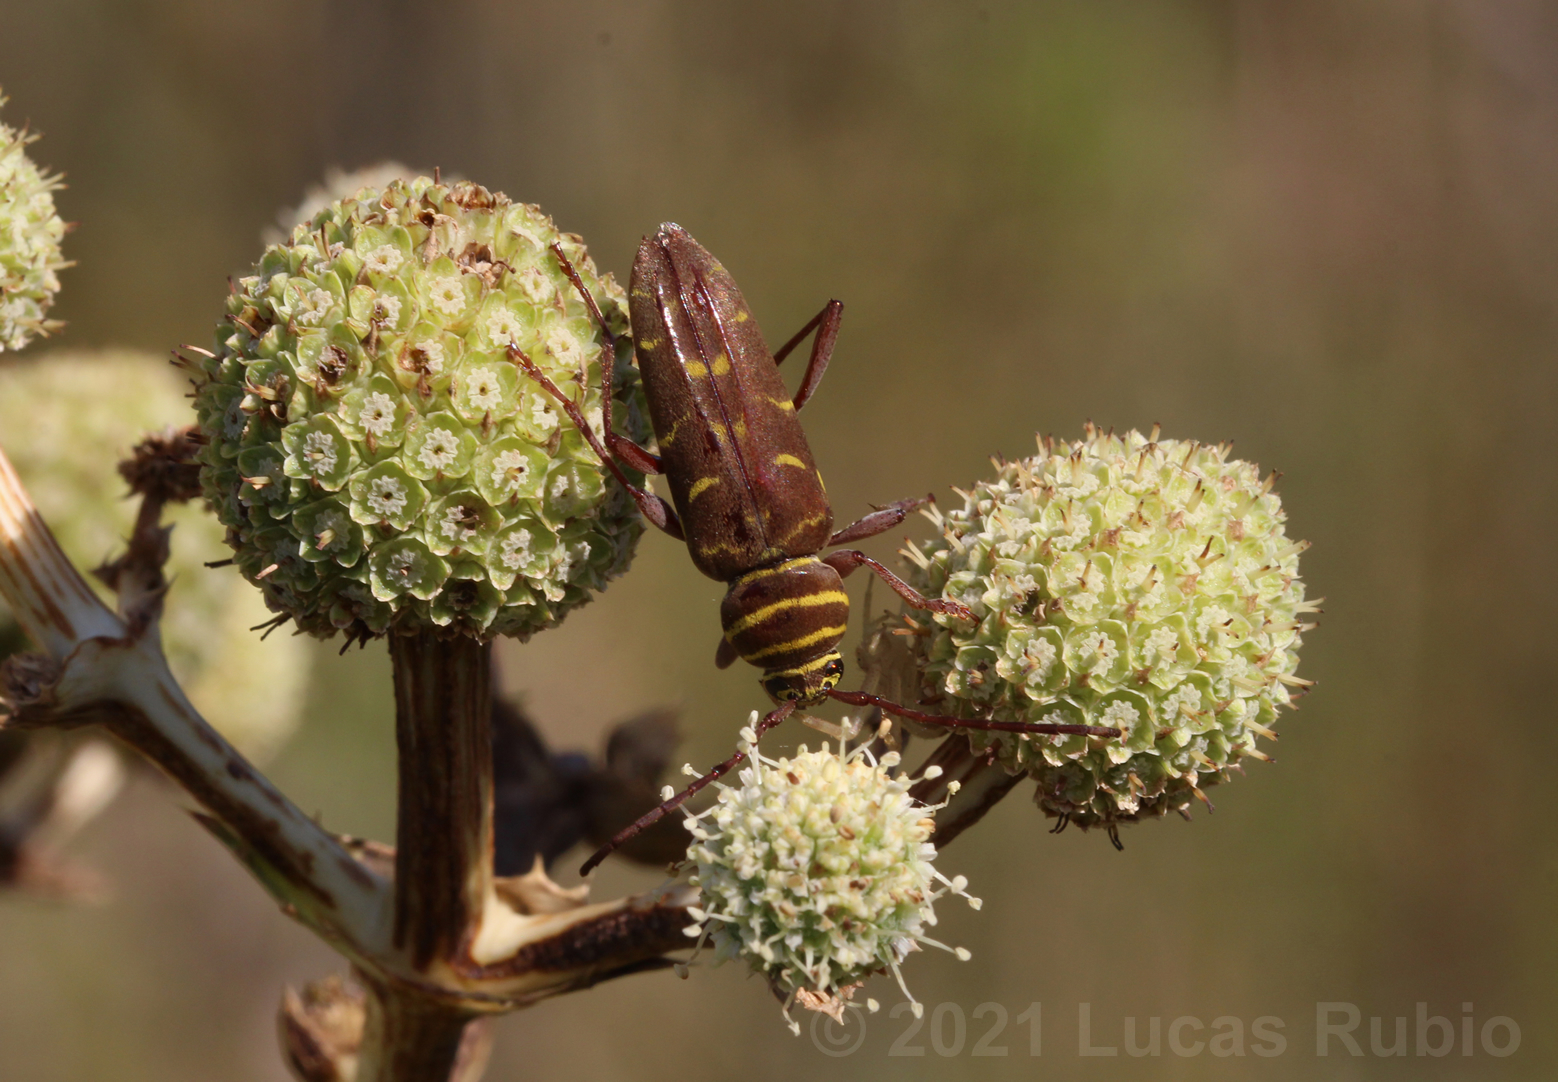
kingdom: Animalia
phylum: Arthropoda
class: Insecta
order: Coleoptera
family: Cerambycidae
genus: Megacyllene
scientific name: Megacyllene castanea
